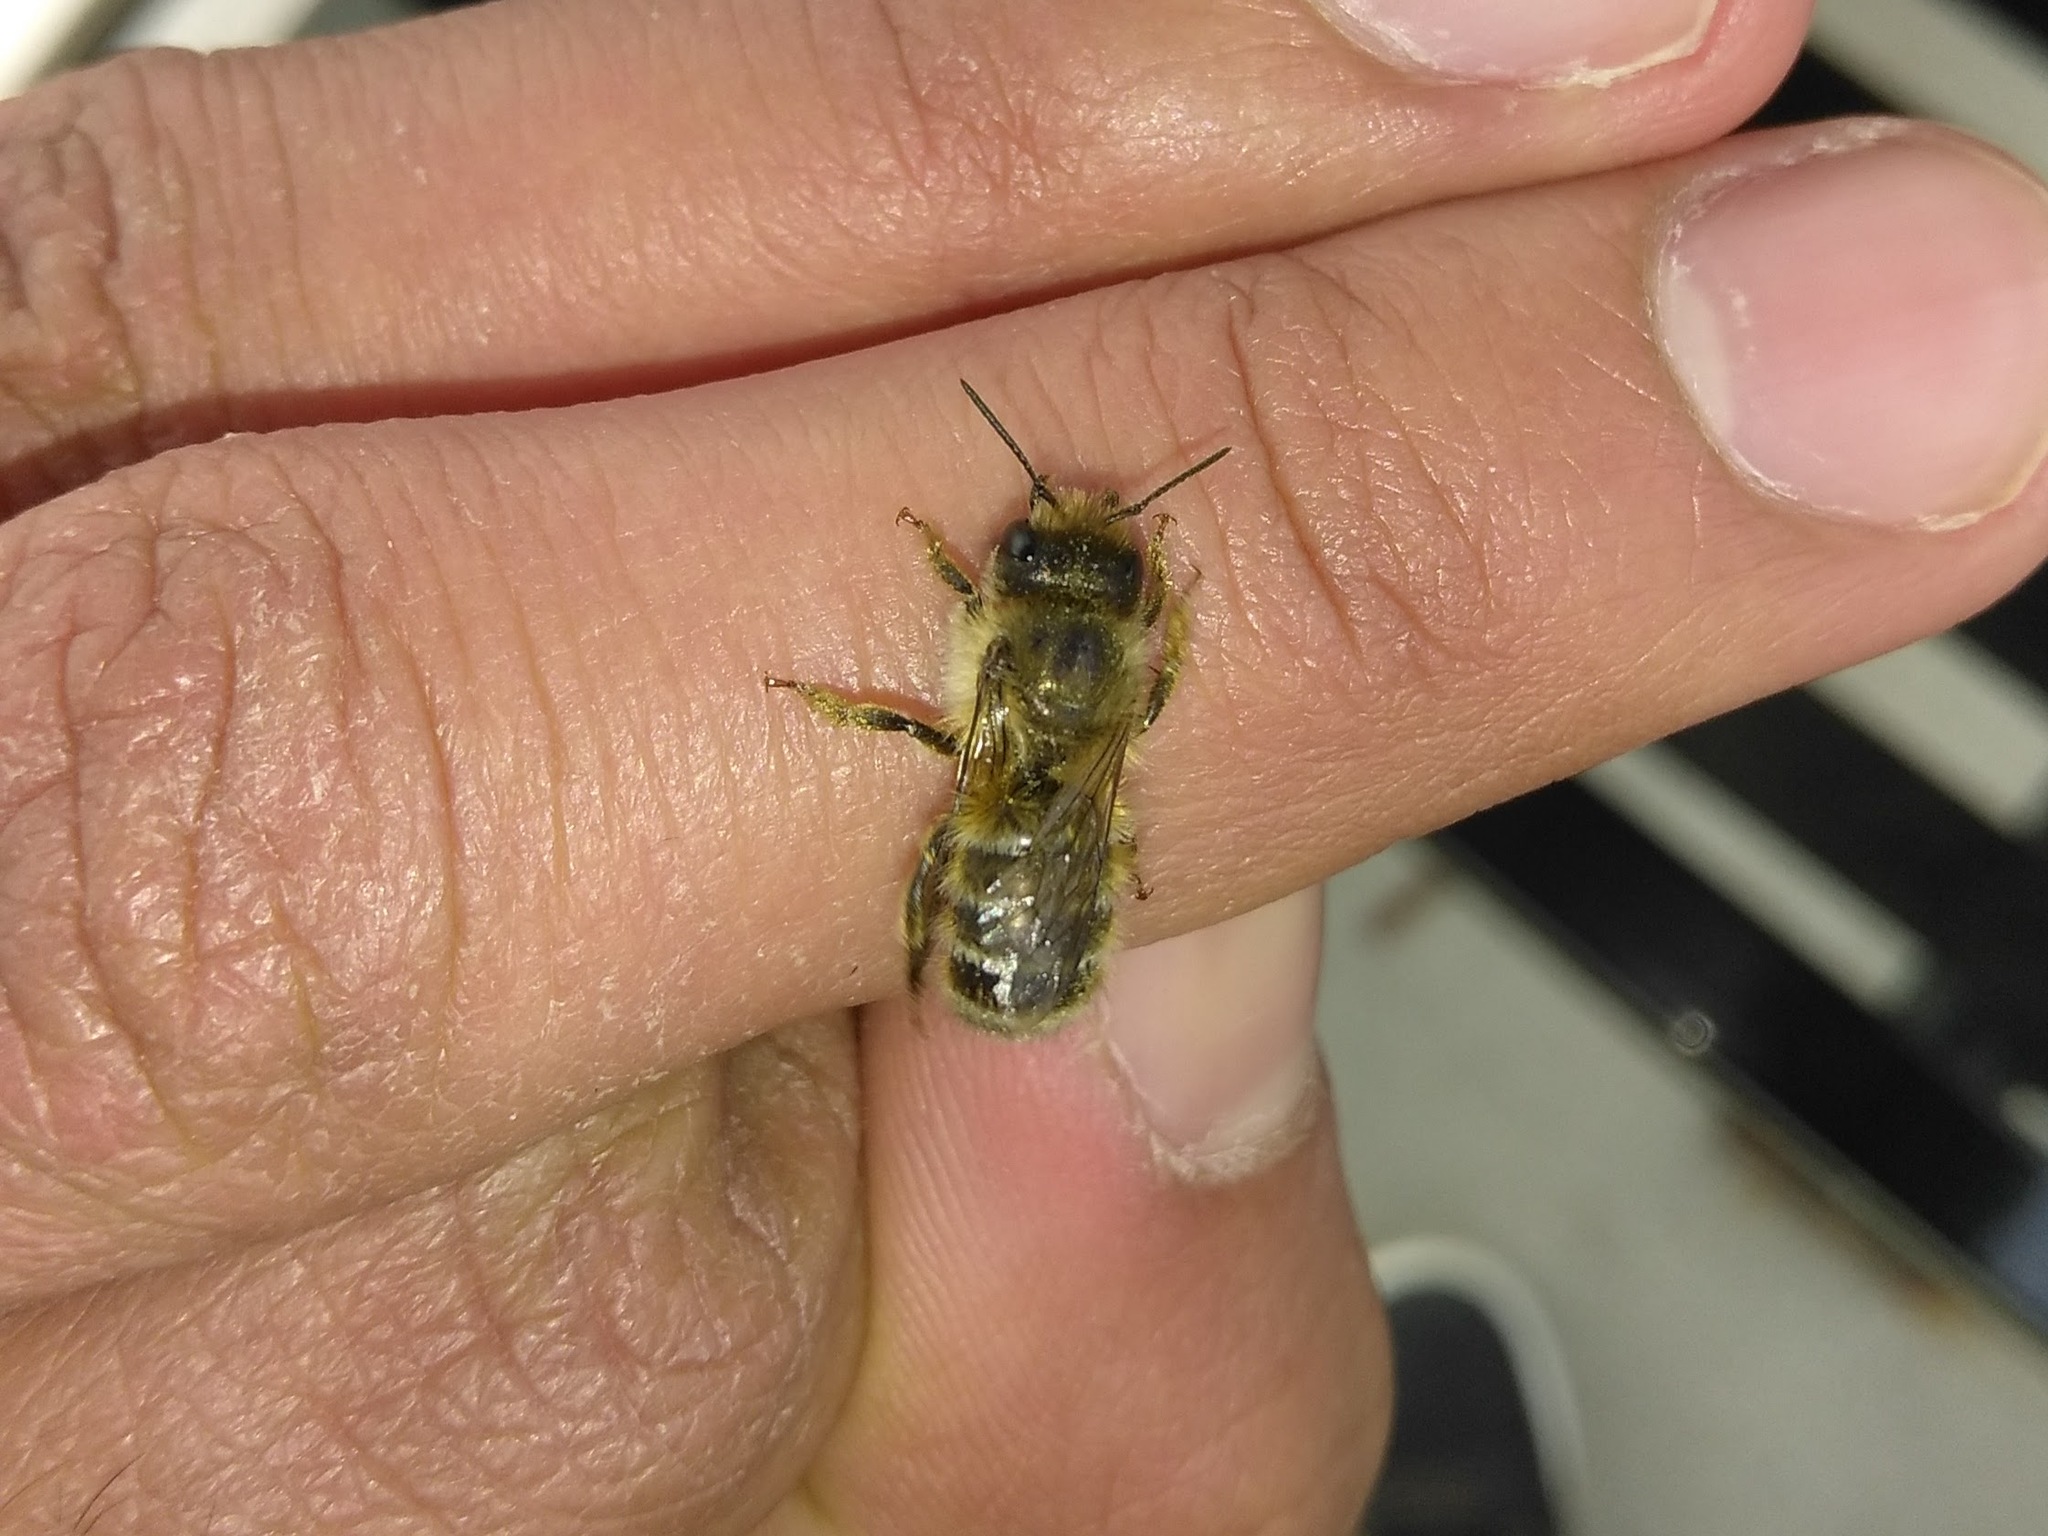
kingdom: Animalia
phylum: Arthropoda
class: Insecta
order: Hymenoptera
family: Megachilidae
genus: Osmia
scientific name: Osmia cornifrons
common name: Horn-faced bee
